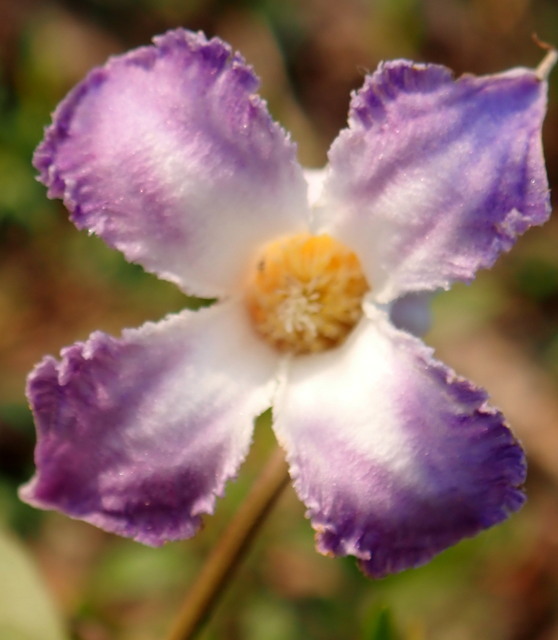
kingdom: Plantae
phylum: Tracheophyta
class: Magnoliopsida
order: Ranunculales
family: Ranunculaceae
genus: Clematis
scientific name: Clematis crispa
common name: Curly clematis
